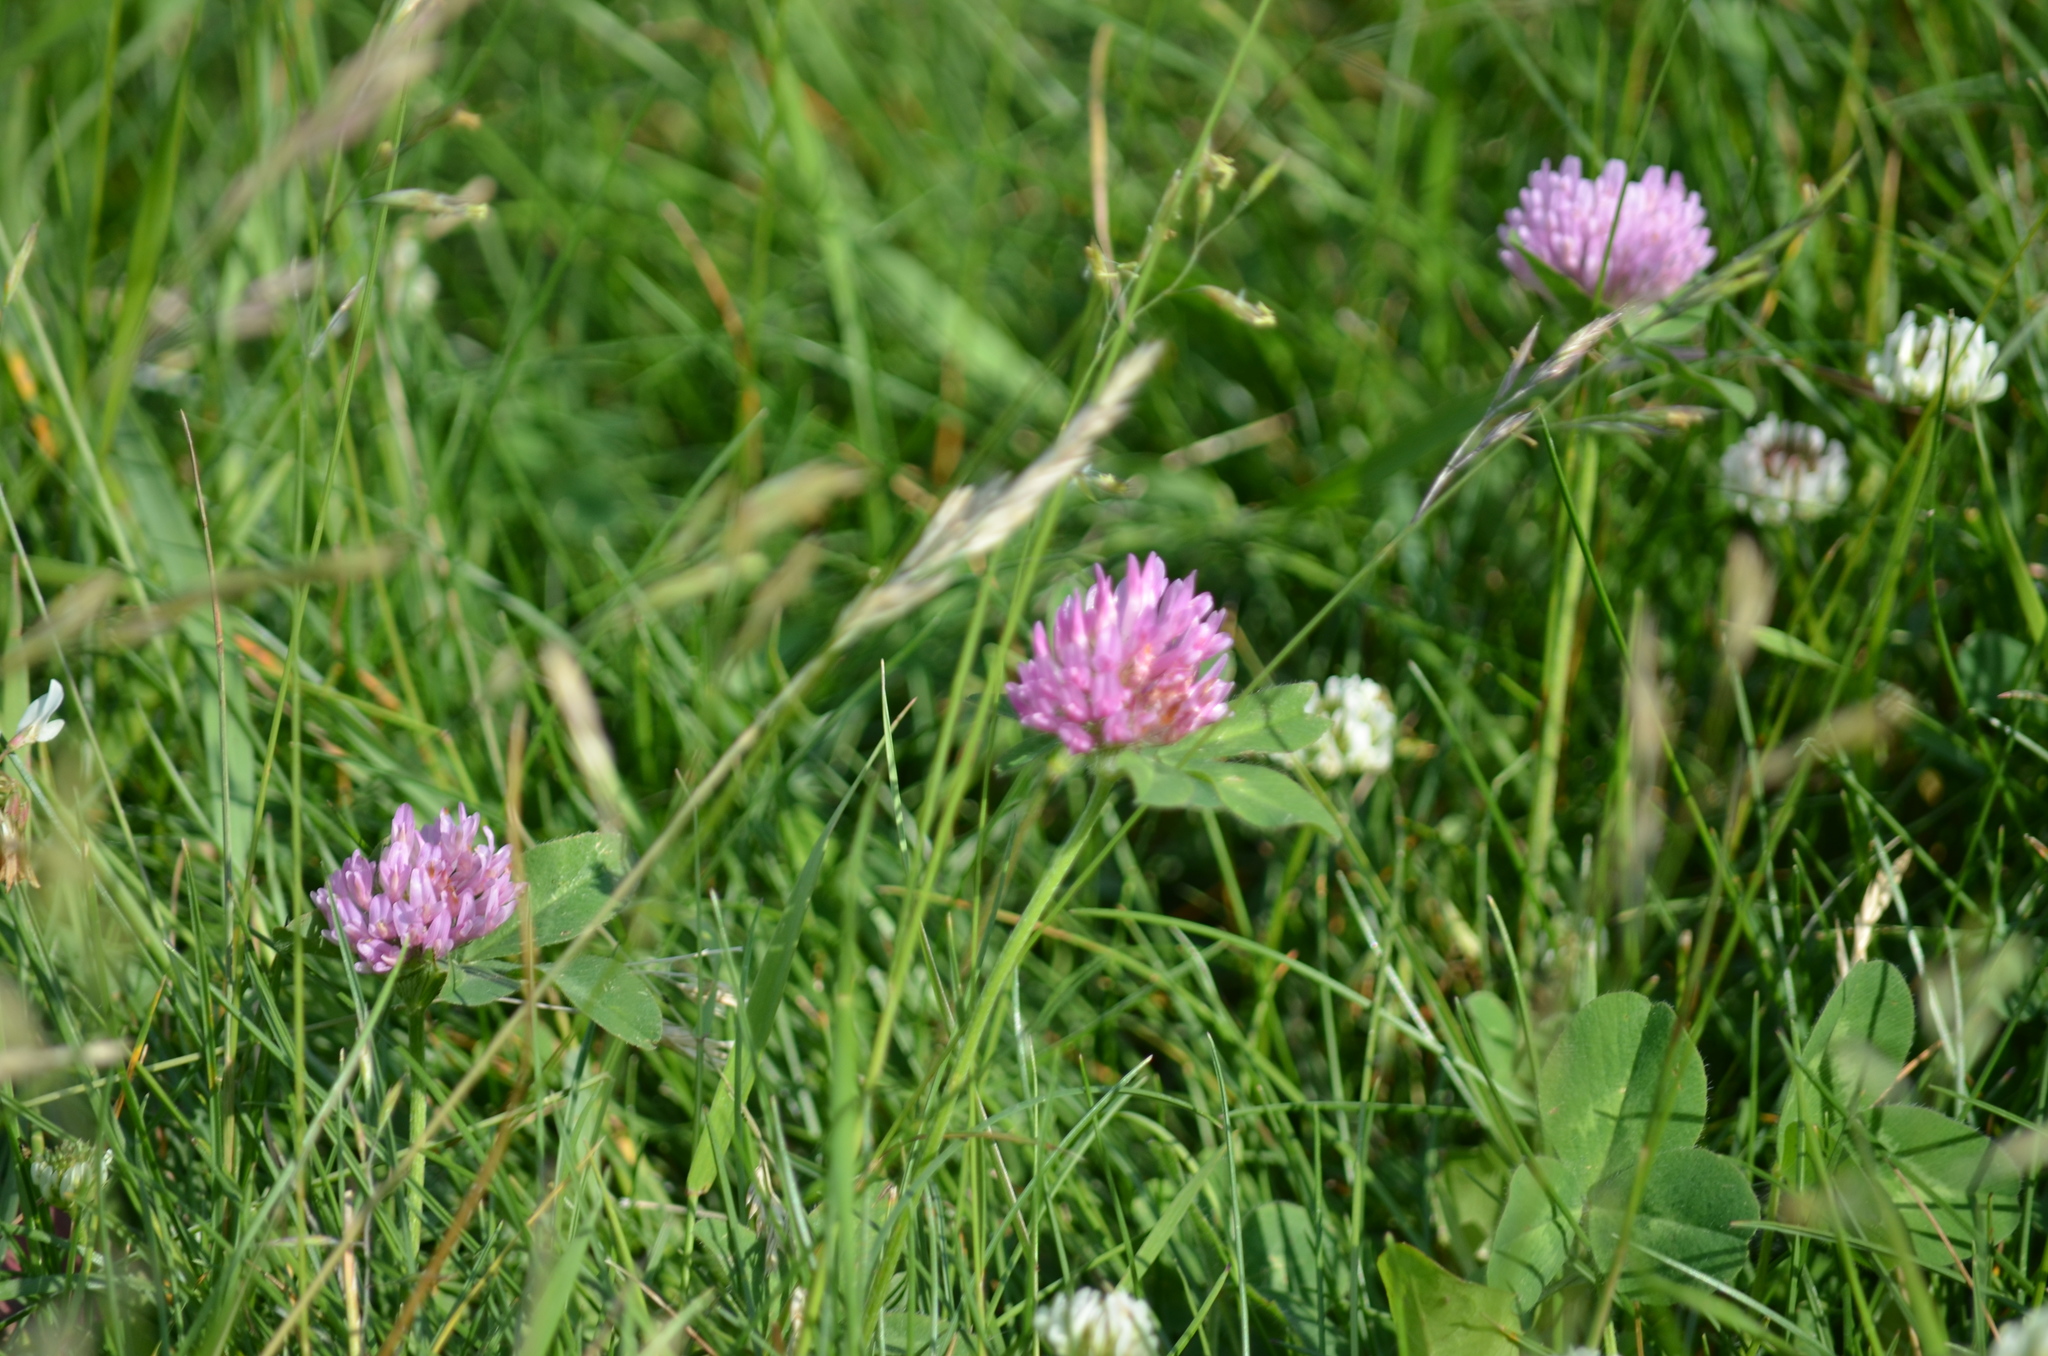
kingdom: Plantae
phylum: Tracheophyta
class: Magnoliopsida
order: Fabales
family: Fabaceae
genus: Trifolium
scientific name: Trifolium pratense
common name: Red clover
